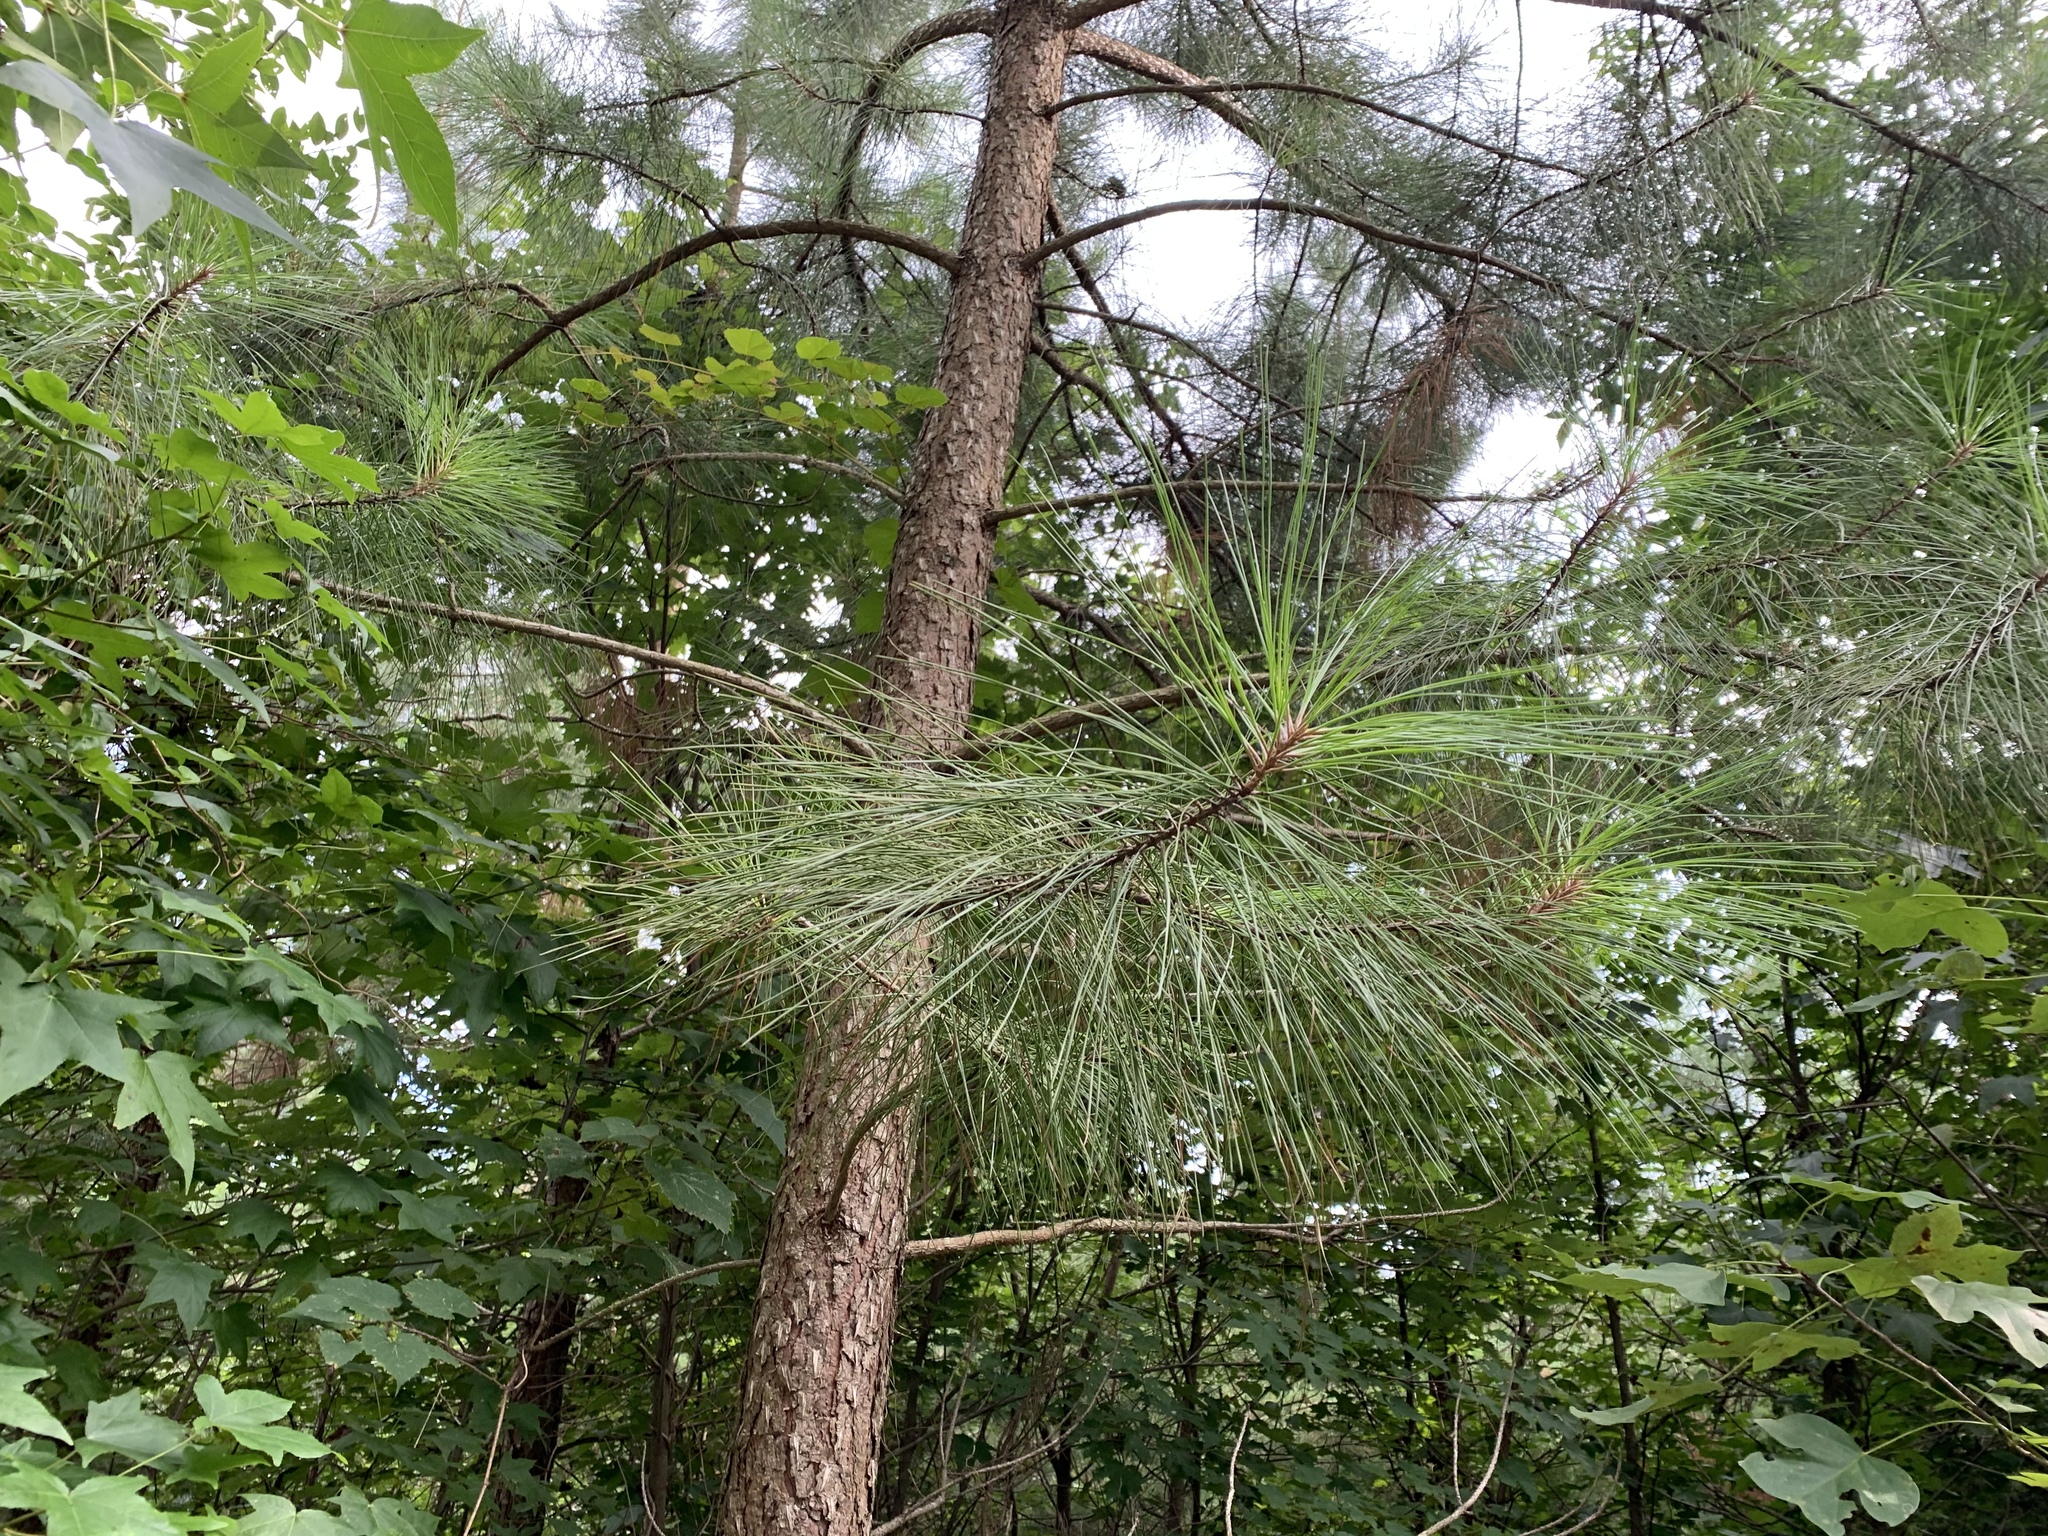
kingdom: Plantae
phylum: Tracheophyta
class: Pinopsida
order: Pinales
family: Pinaceae
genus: Pinus
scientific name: Pinus taeda
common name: Loblolly pine
